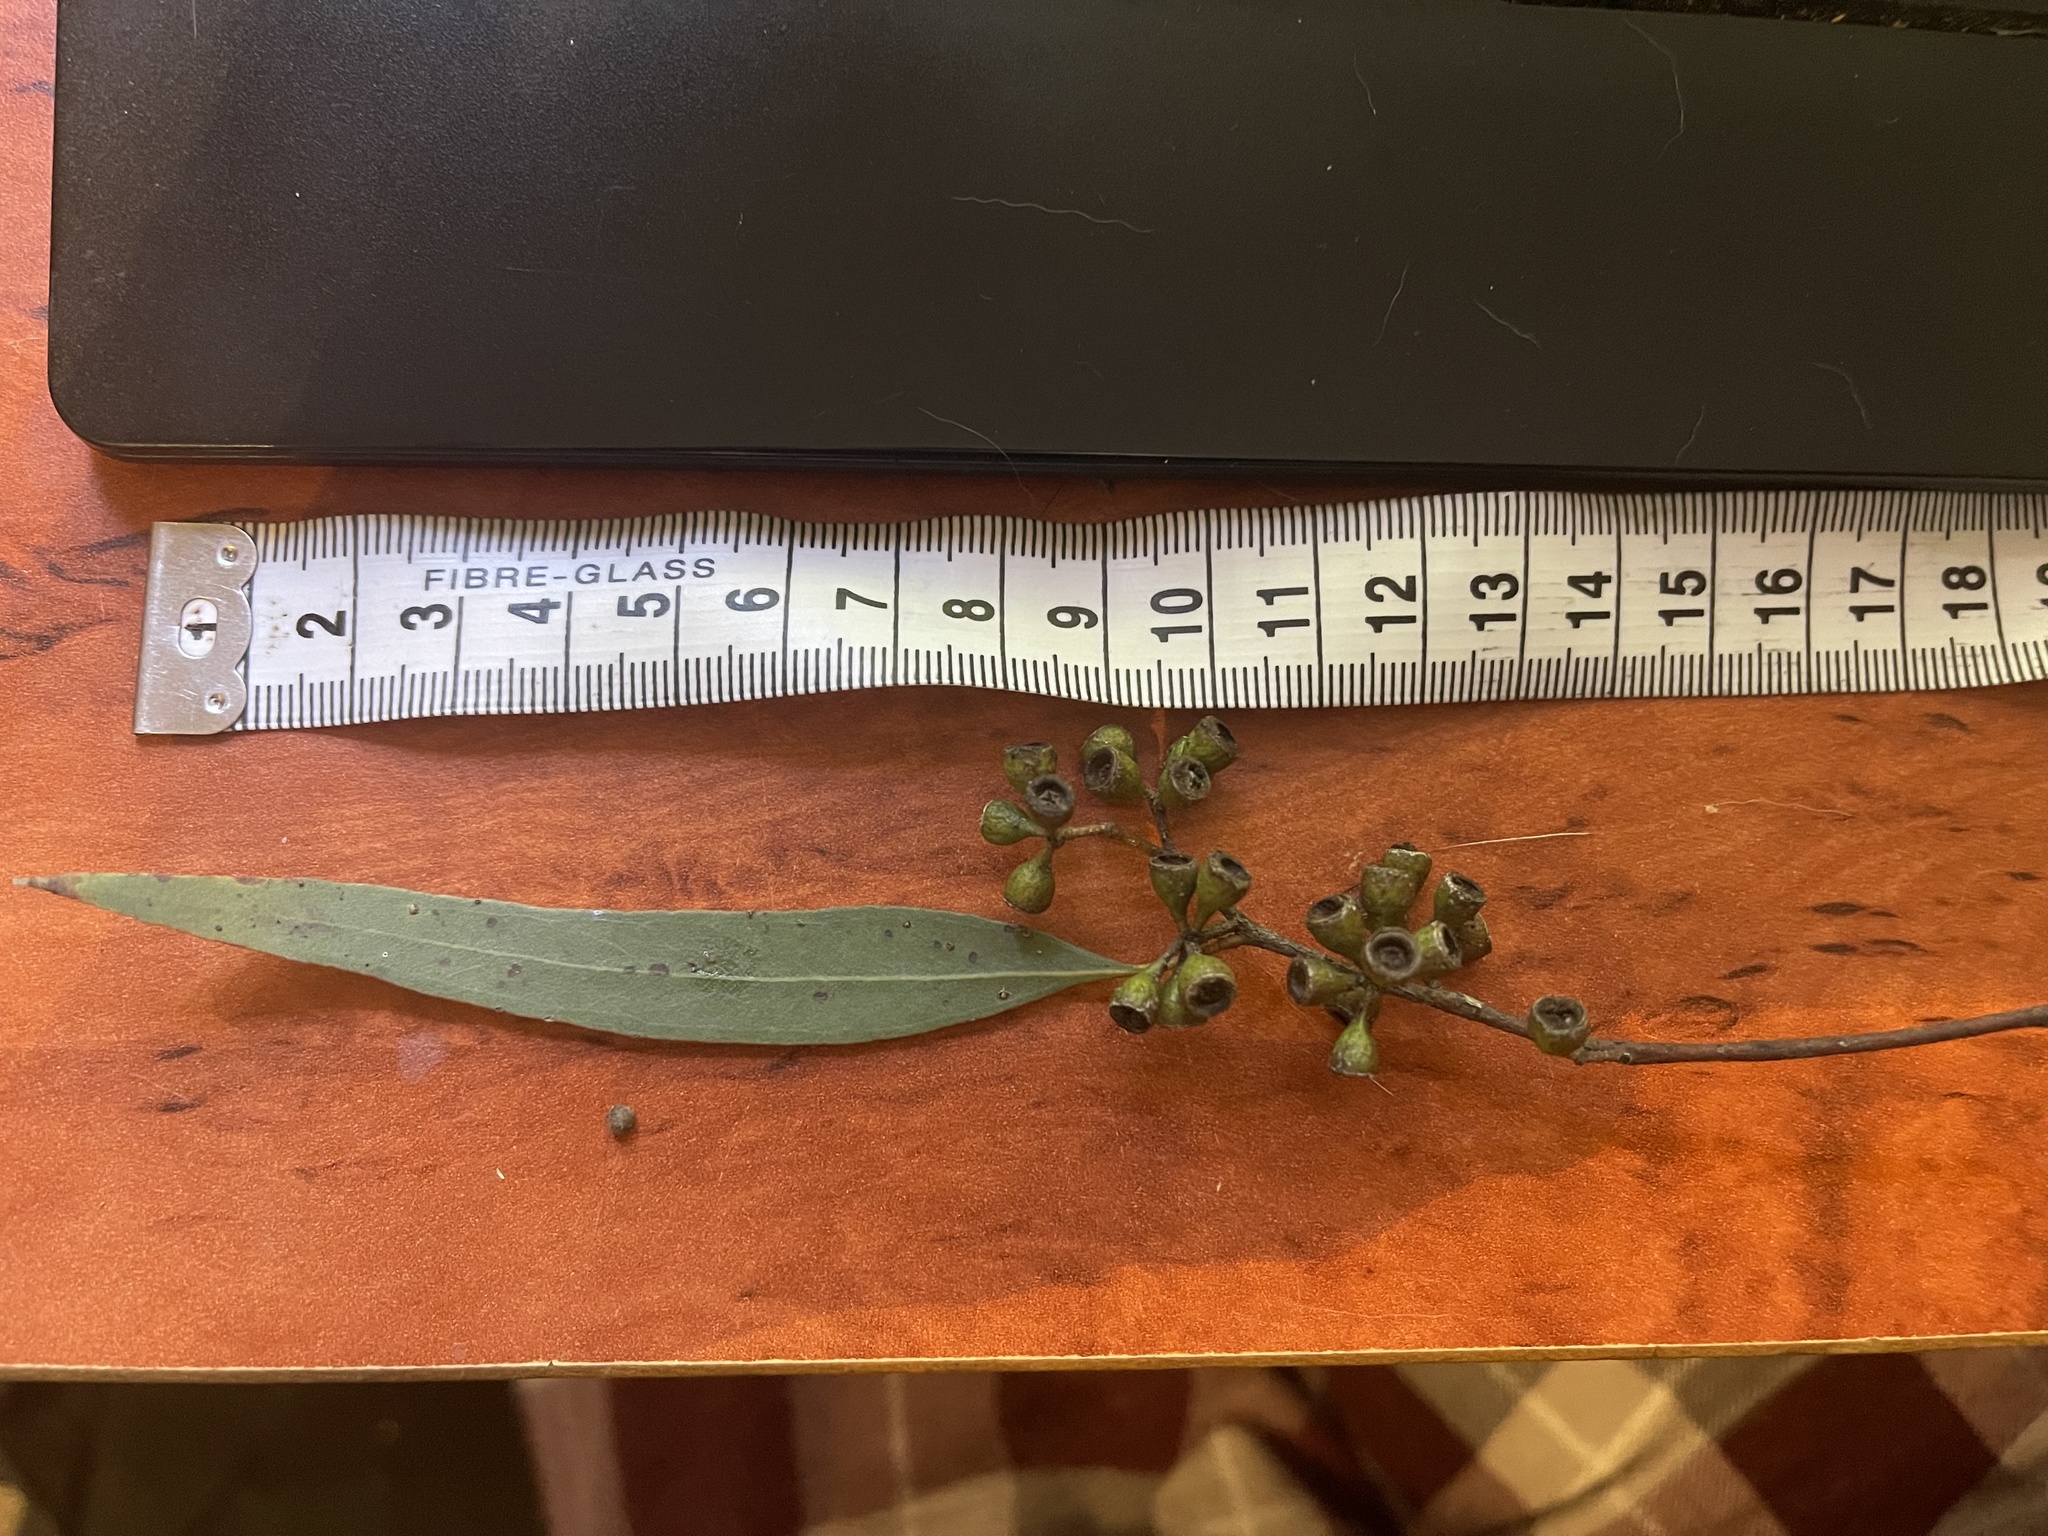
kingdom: Plantae
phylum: Tracheophyta
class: Magnoliopsida
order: Myrtales
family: Myrtaceae
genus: Eucalyptus
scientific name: Eucalyptus melliodora
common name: Yellow ironbox
